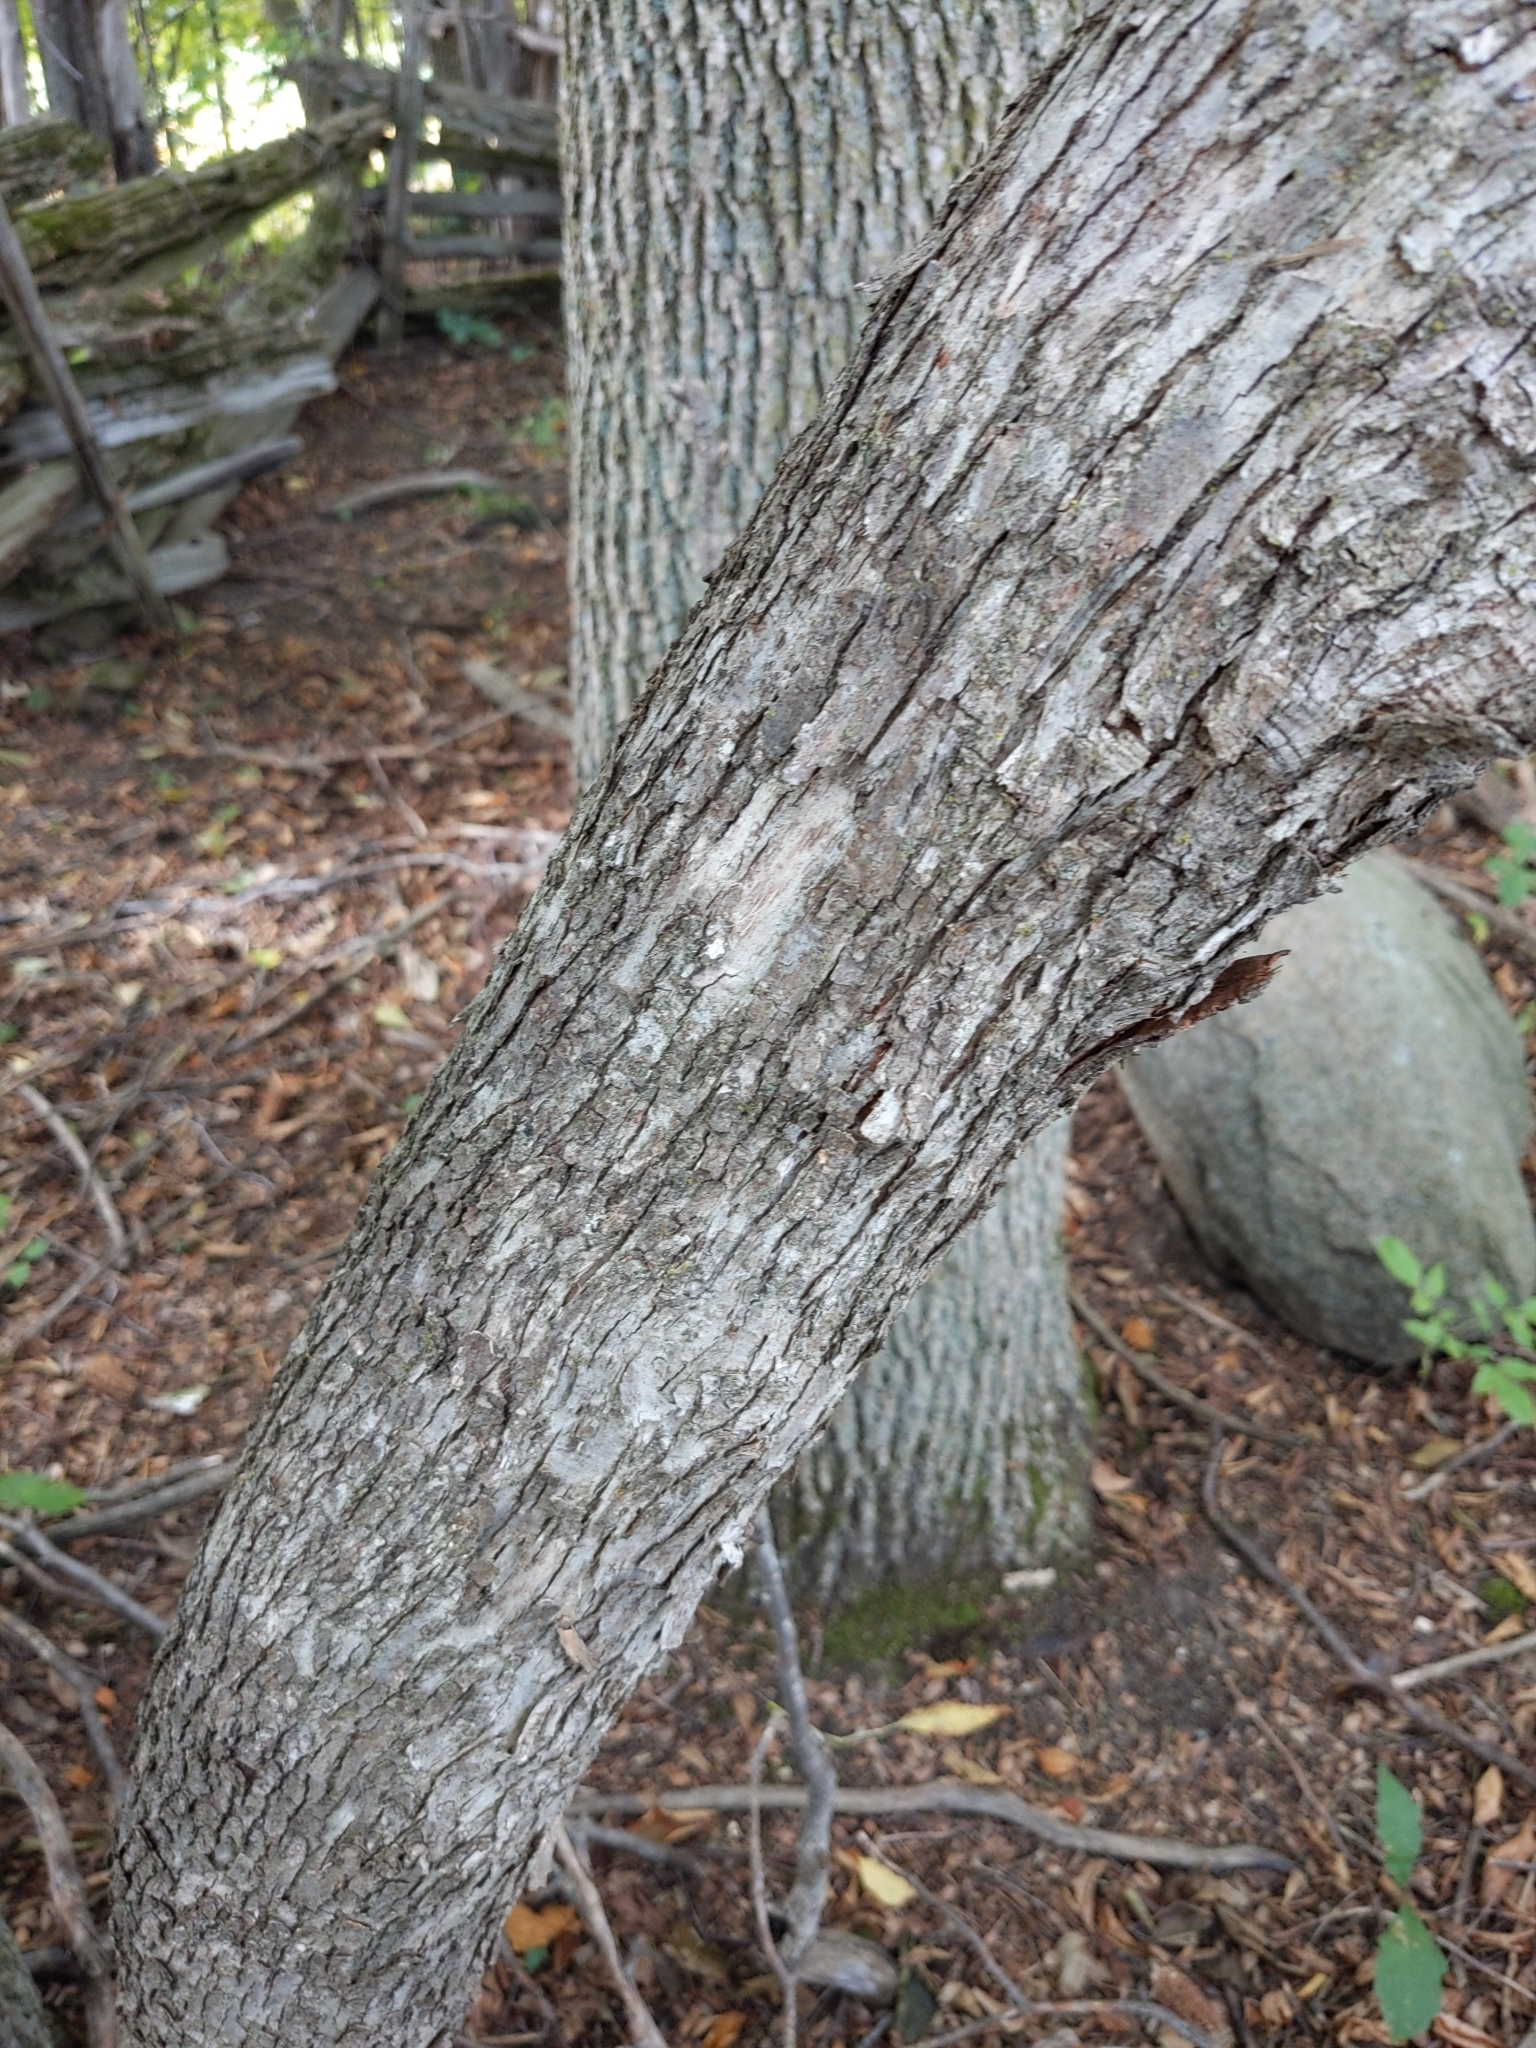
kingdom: Plantae
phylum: Tracheophyta
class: Magnoliopsida
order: Fagales
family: Betulaceae
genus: Ostrya
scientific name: Ostrya virginiana
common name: Ironwood
